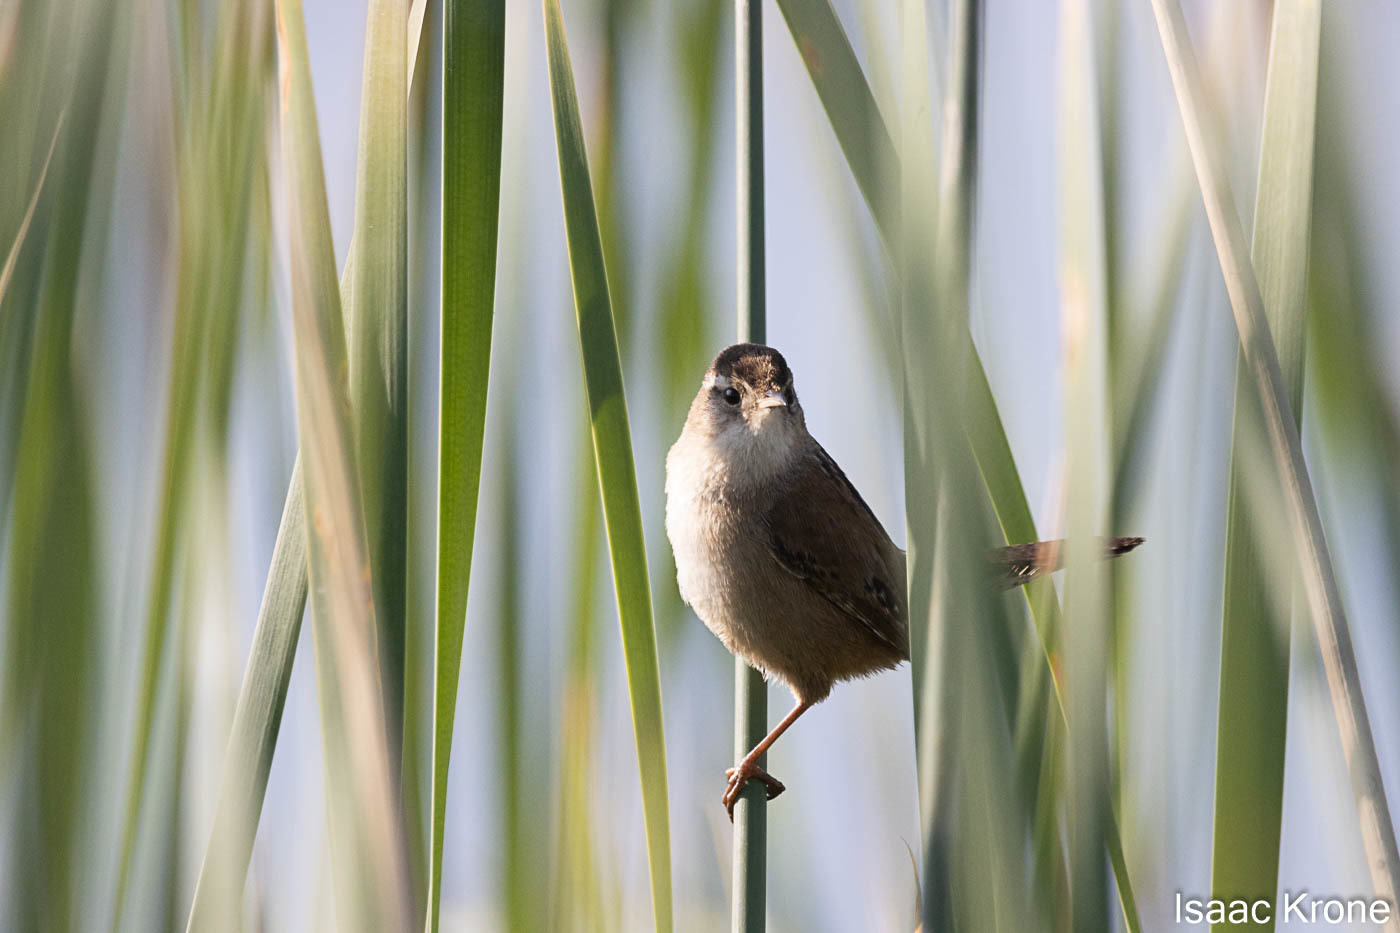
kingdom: Animalia
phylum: Chordata
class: Aves
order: Passeriformes
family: Troglodytidae
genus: Cistothorus
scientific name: Cistothorus palustris
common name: Marsh wren
